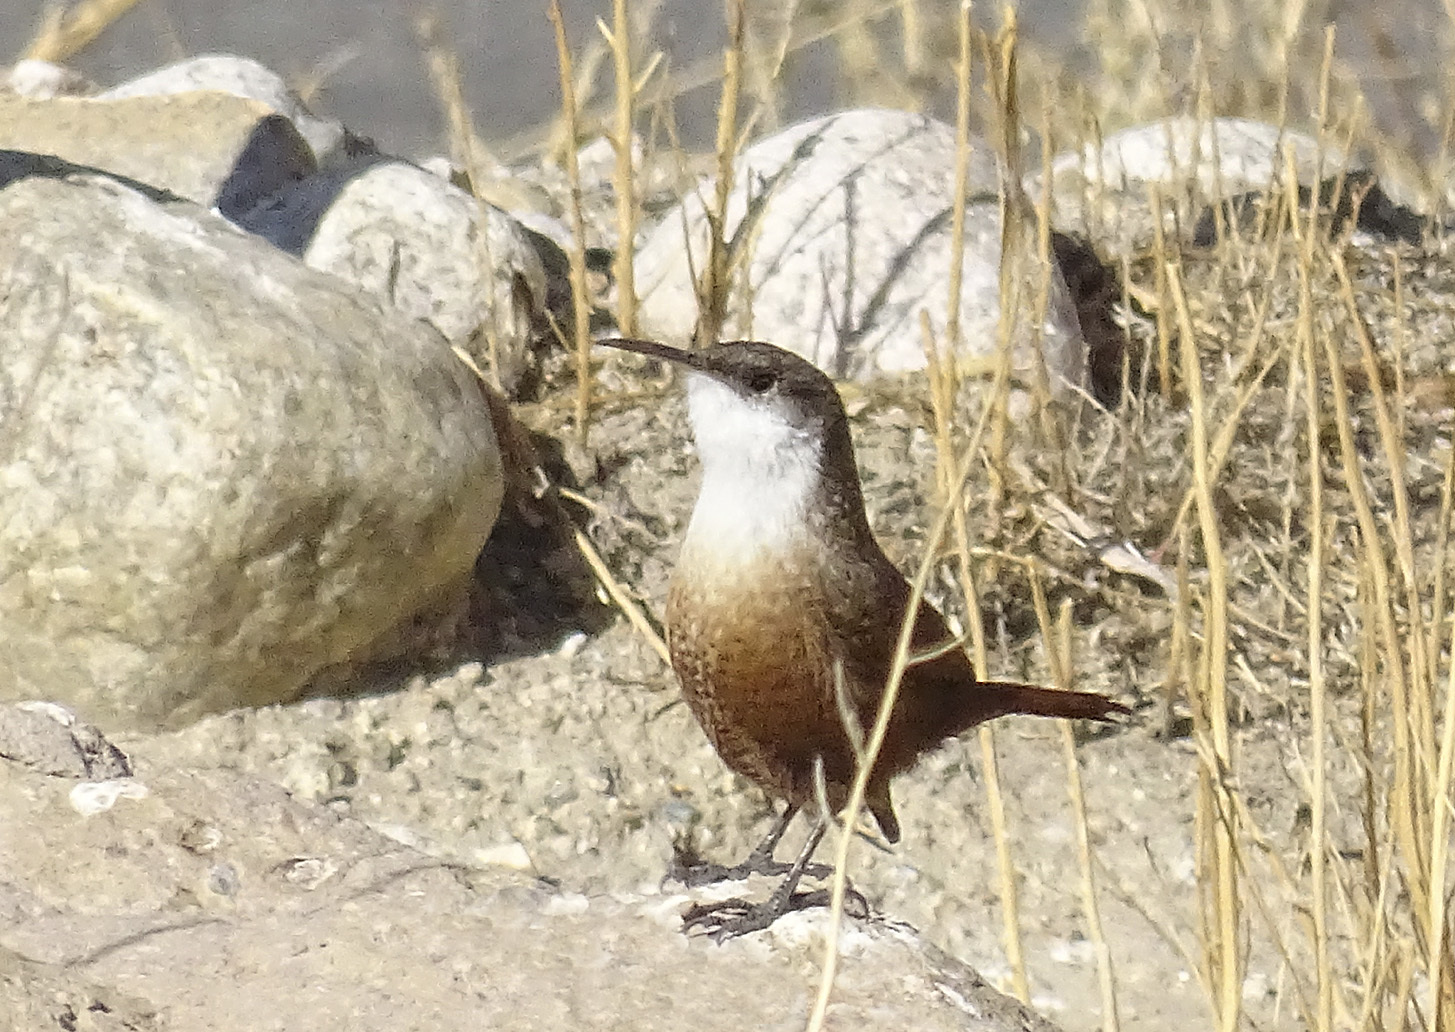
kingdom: Animalia
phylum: Chordata
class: Aves
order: Passeriformes
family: Troglodytidae
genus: Catherpes
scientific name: Catherpes mexicanus
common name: Canyon wren
